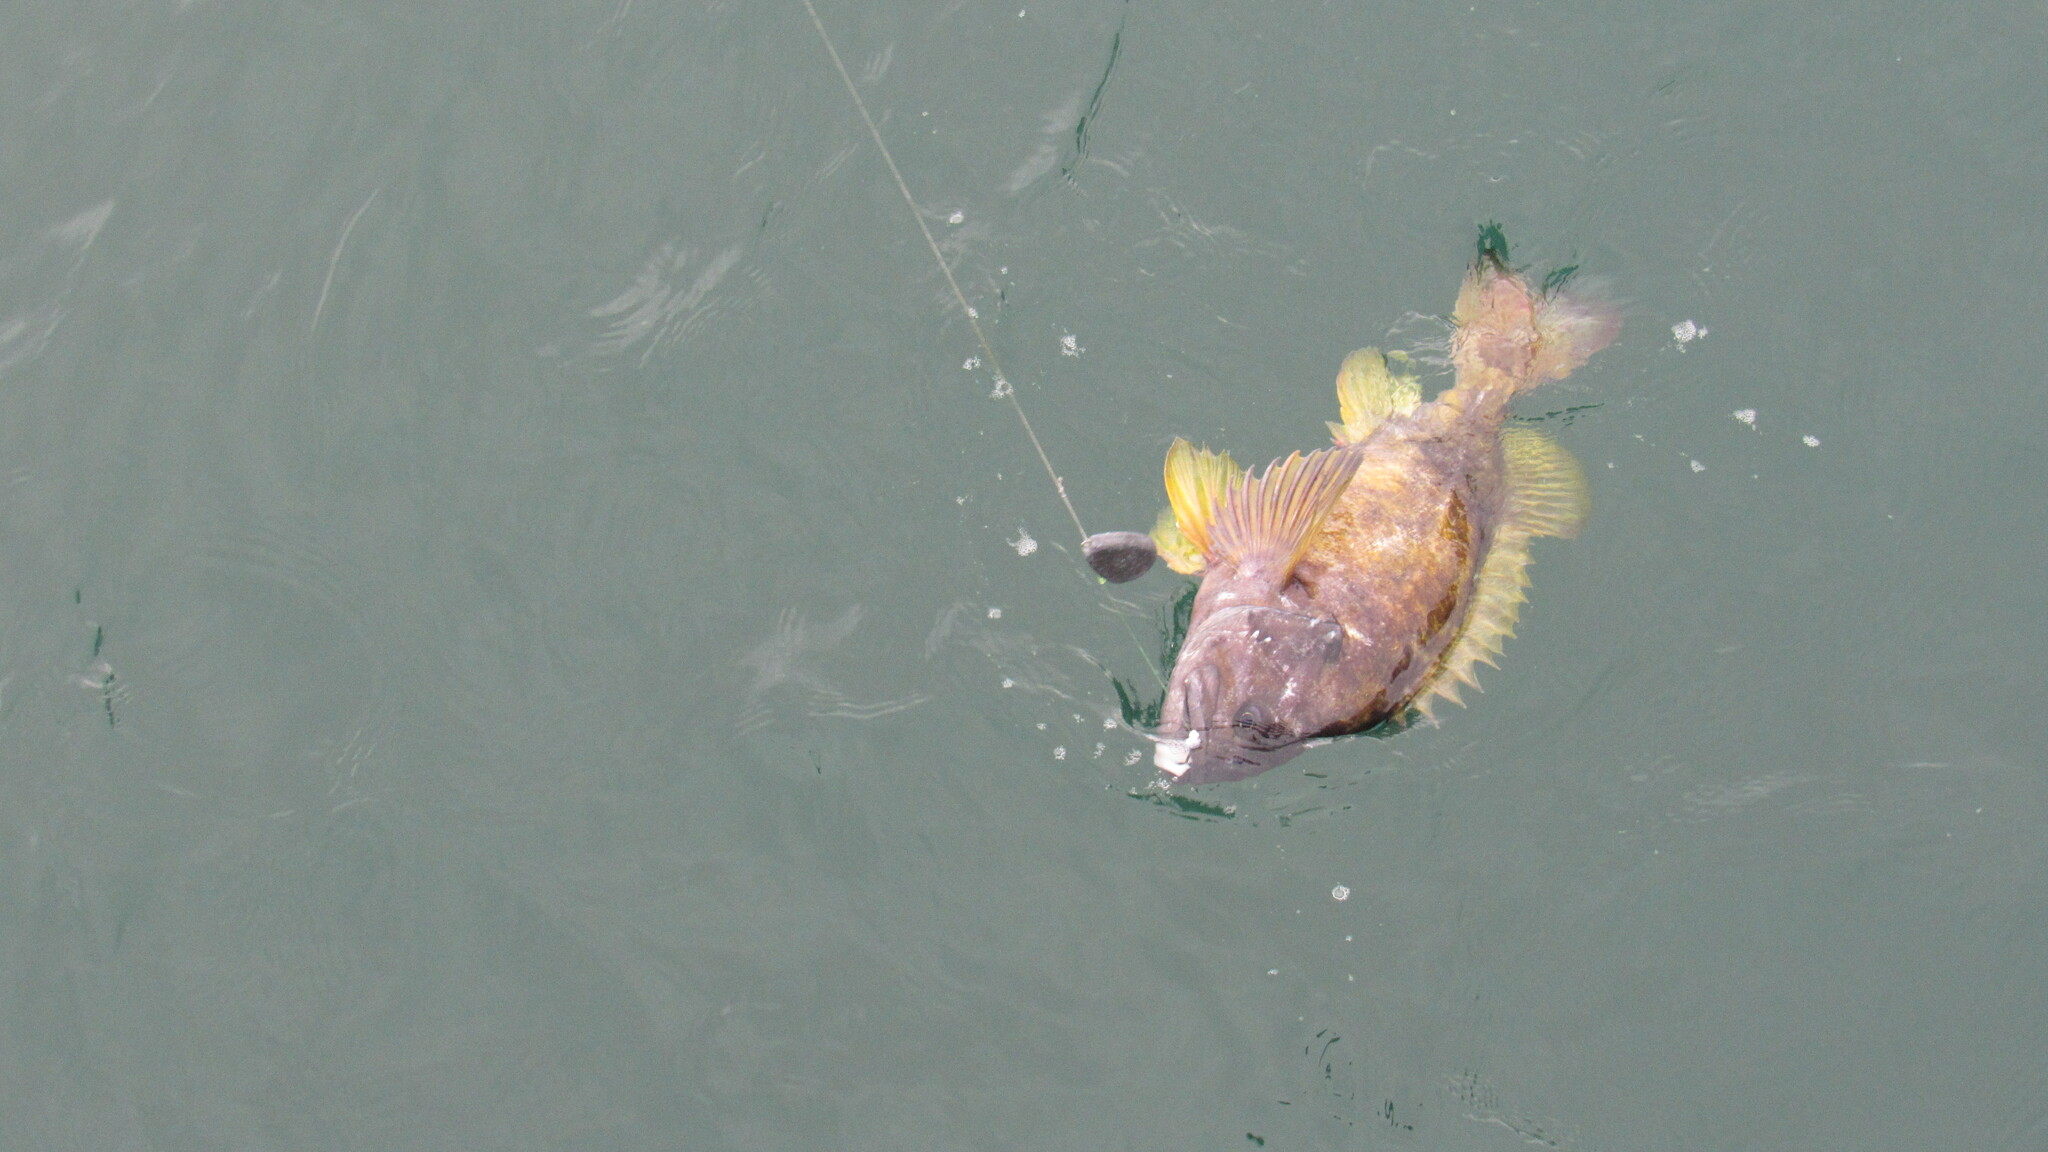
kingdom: Animalia
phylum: Chordata
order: Scorpaeniformes
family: Sebastidae
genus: Sebastes
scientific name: Sebastes glaucus
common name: Blue rockfish
